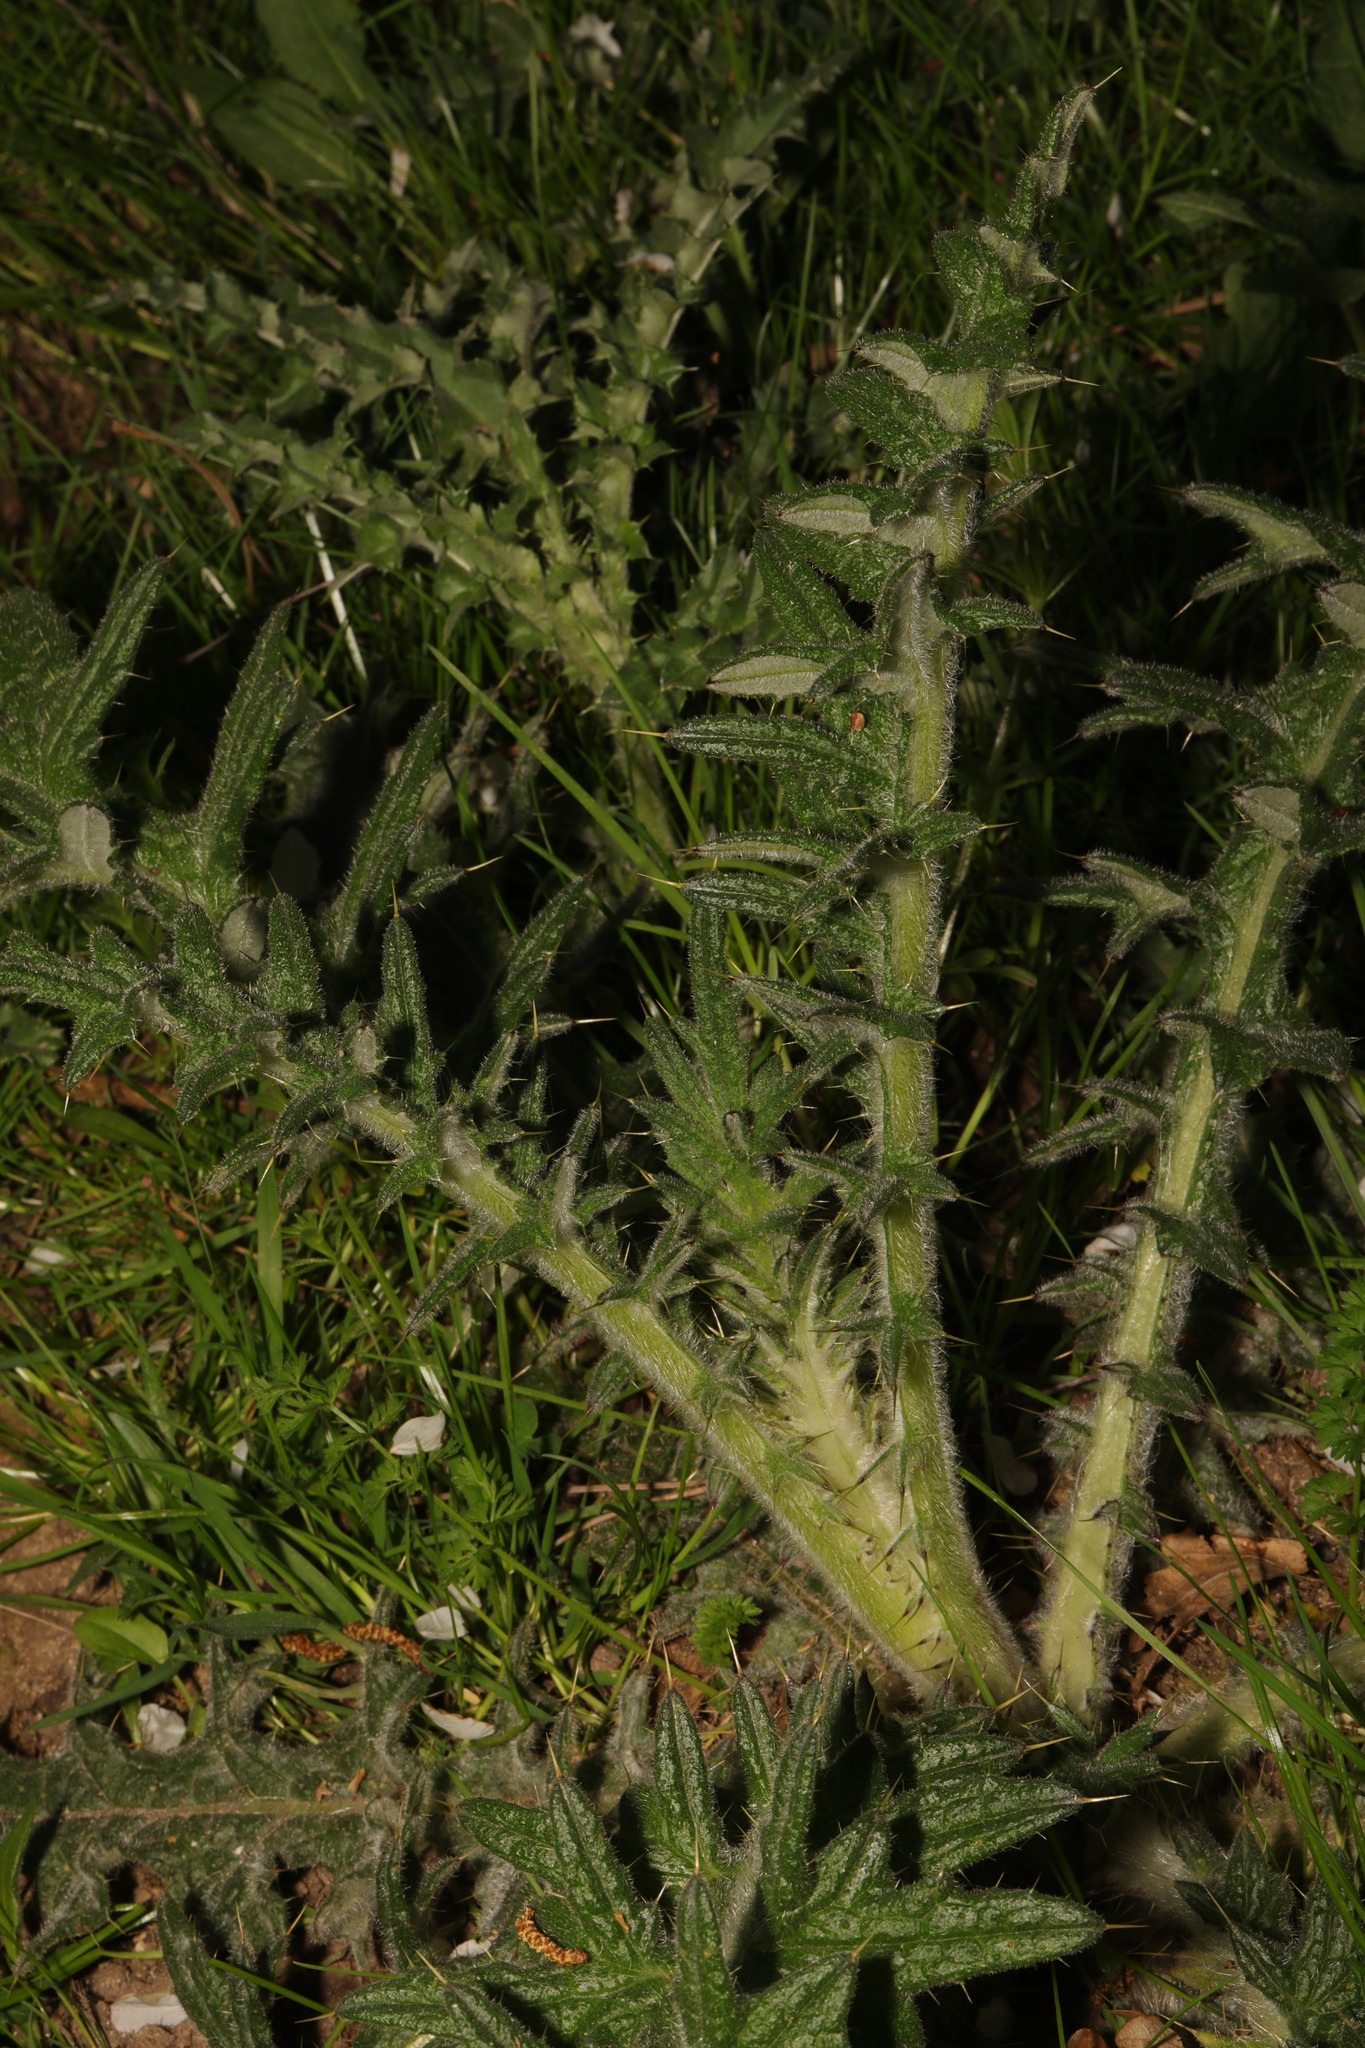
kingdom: Plantae
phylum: Tracheophyta
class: Magnoliopsida
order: Asterales
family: Asteraceae
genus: Cirsium
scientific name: Cirsium vulgare
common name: Bull thistle
